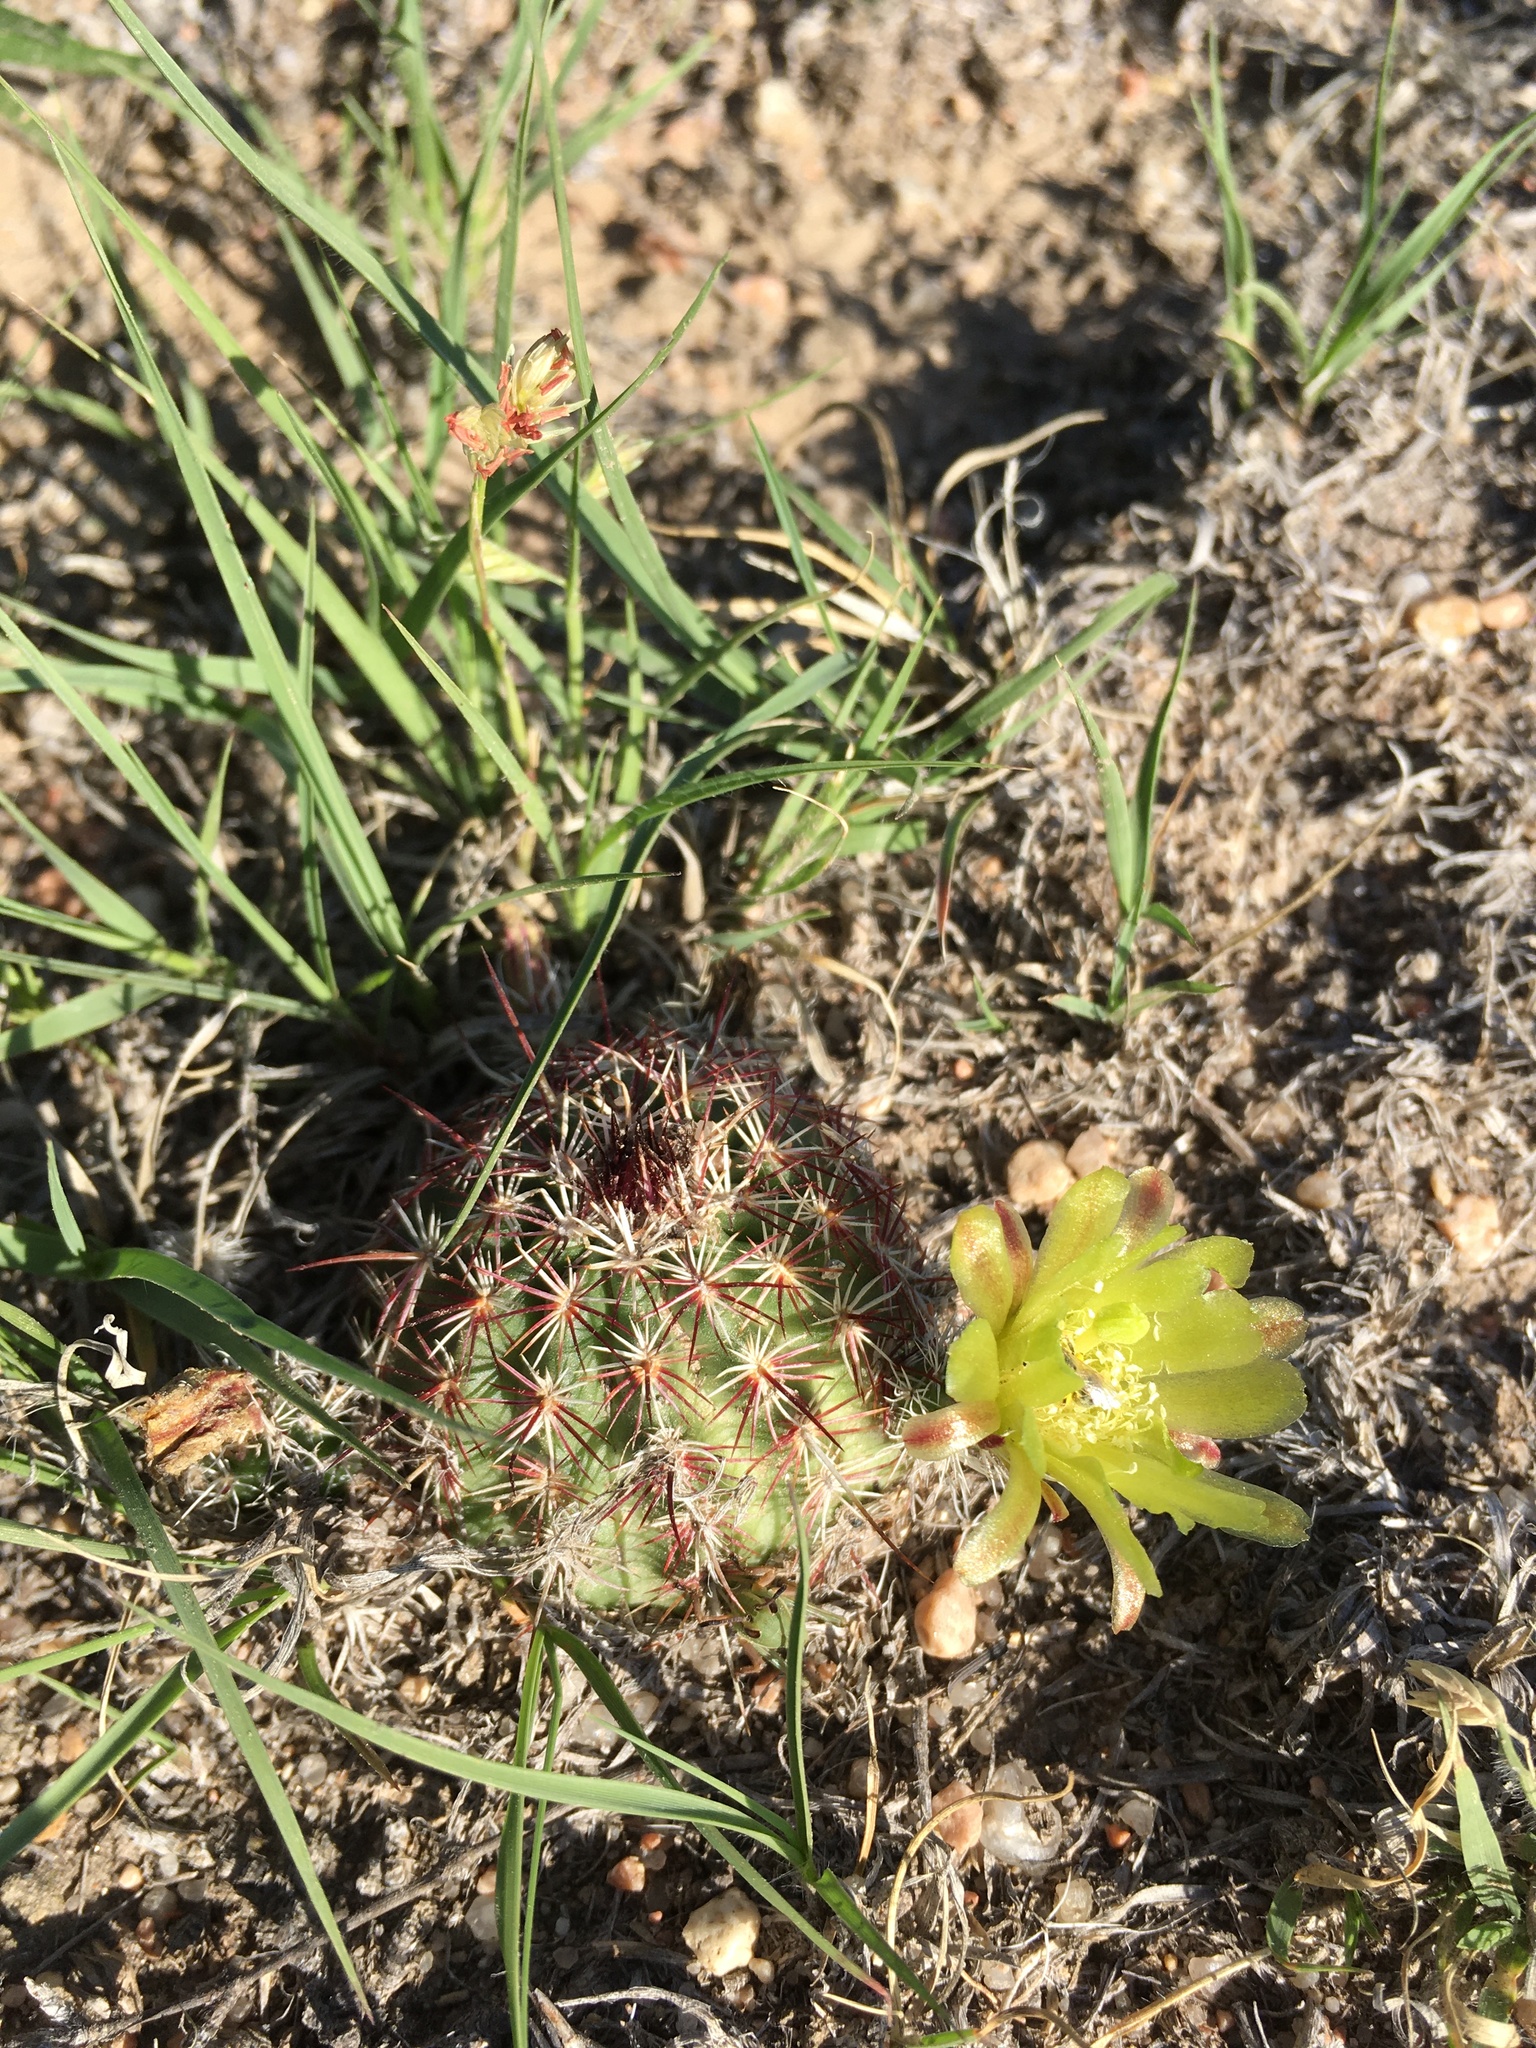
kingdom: Plantae
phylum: Tracheophyta
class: Magnoliopsida
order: Caryophyllales
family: Cactaceae
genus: Echinocereus
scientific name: Echinocereus viridiflorus
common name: Nylon hedgehog cactus
